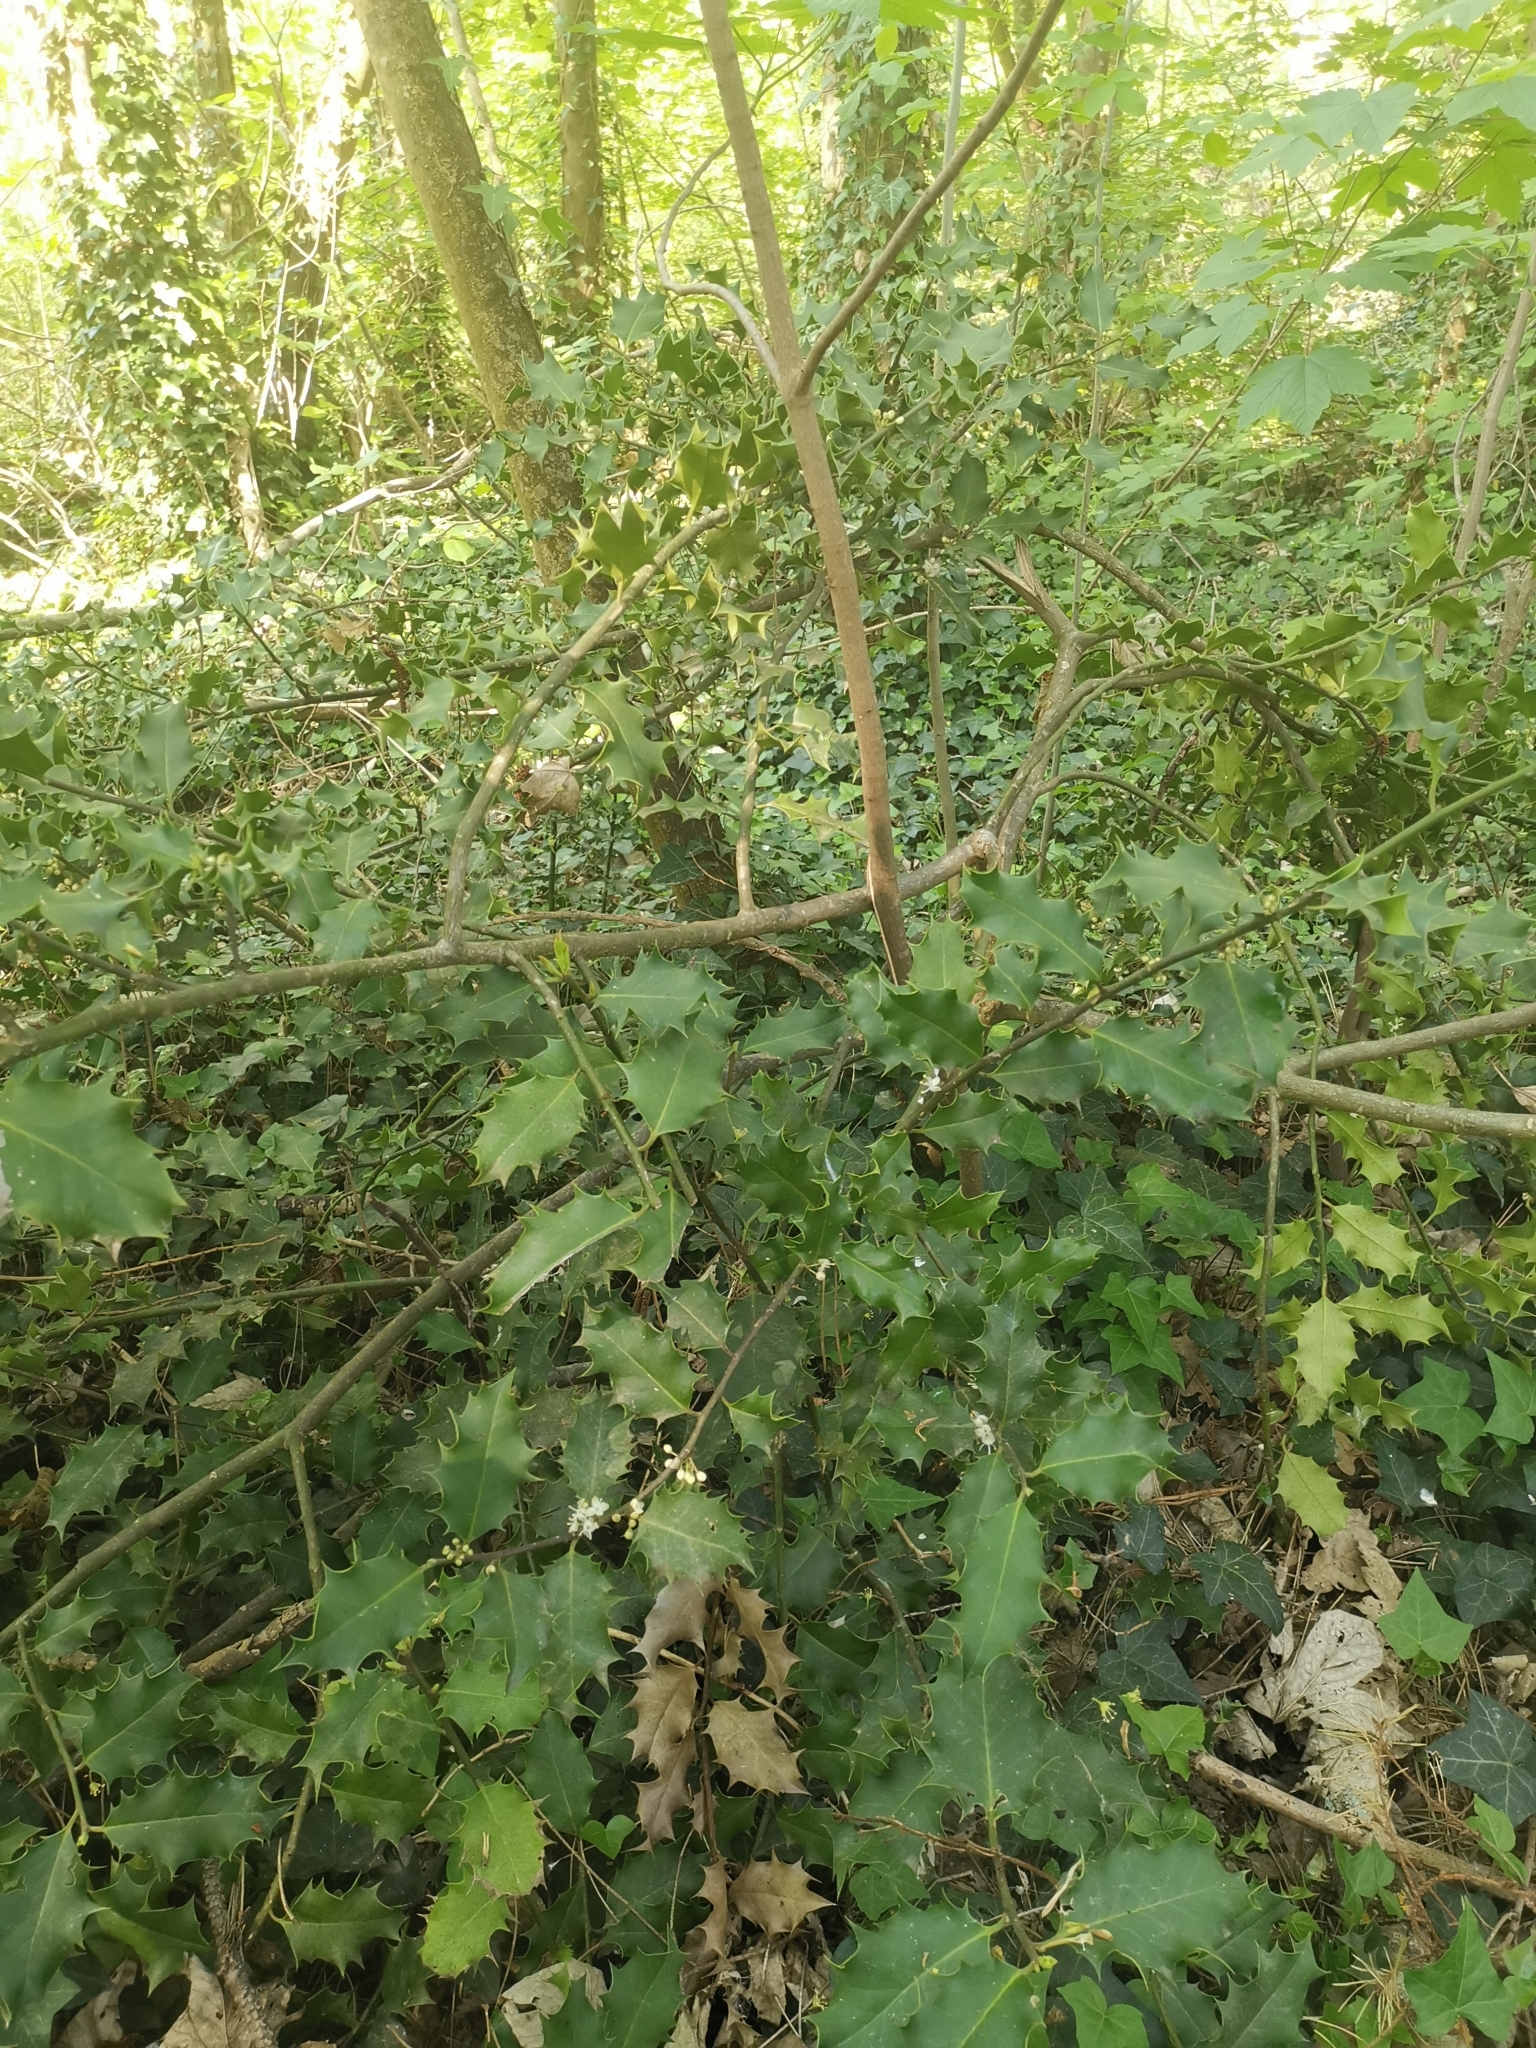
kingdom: Plantae
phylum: Tracheophyta
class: Magnoliopsida
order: Aquifoliales
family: Aquifoliaceae
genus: Ilex
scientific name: Ilex aquifolium
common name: English holly
